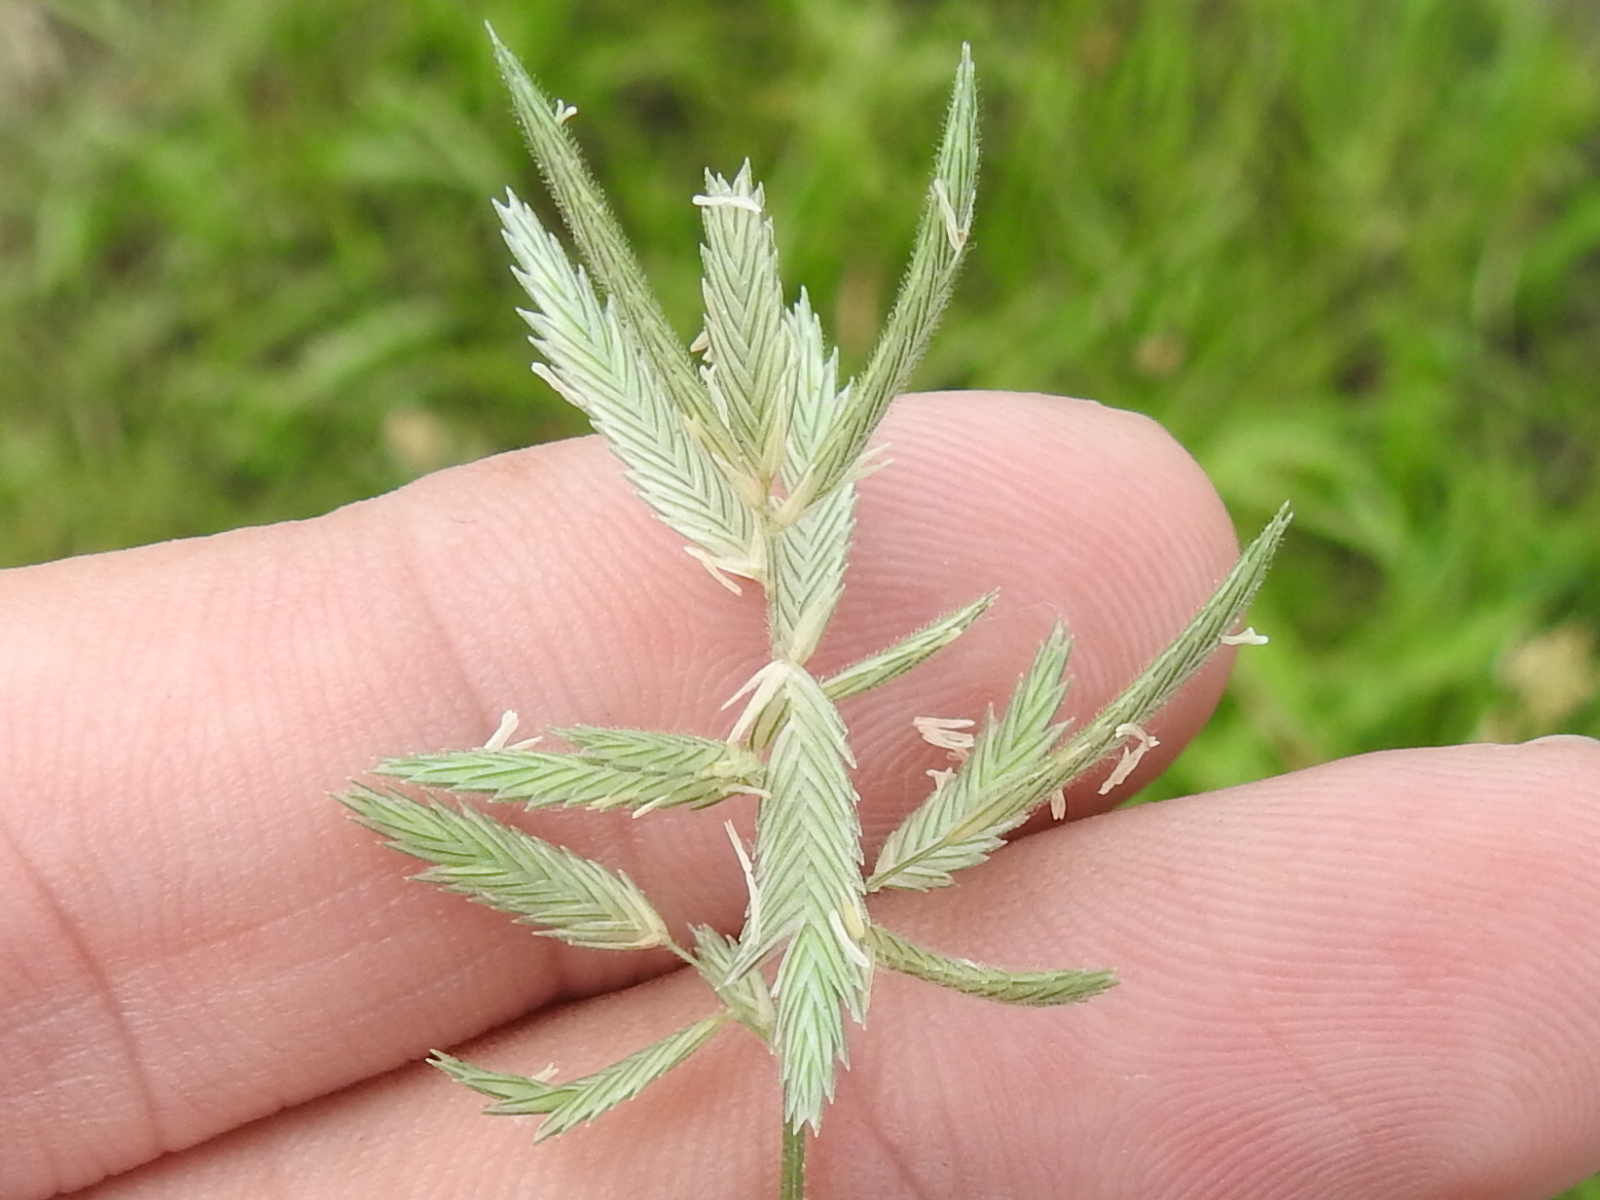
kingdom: Plantae
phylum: Tracheophyta
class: Liliopsida
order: Poales
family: Poaceae
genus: Eragrostis
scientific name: Eragrostis reptans
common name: Creeping love grass
